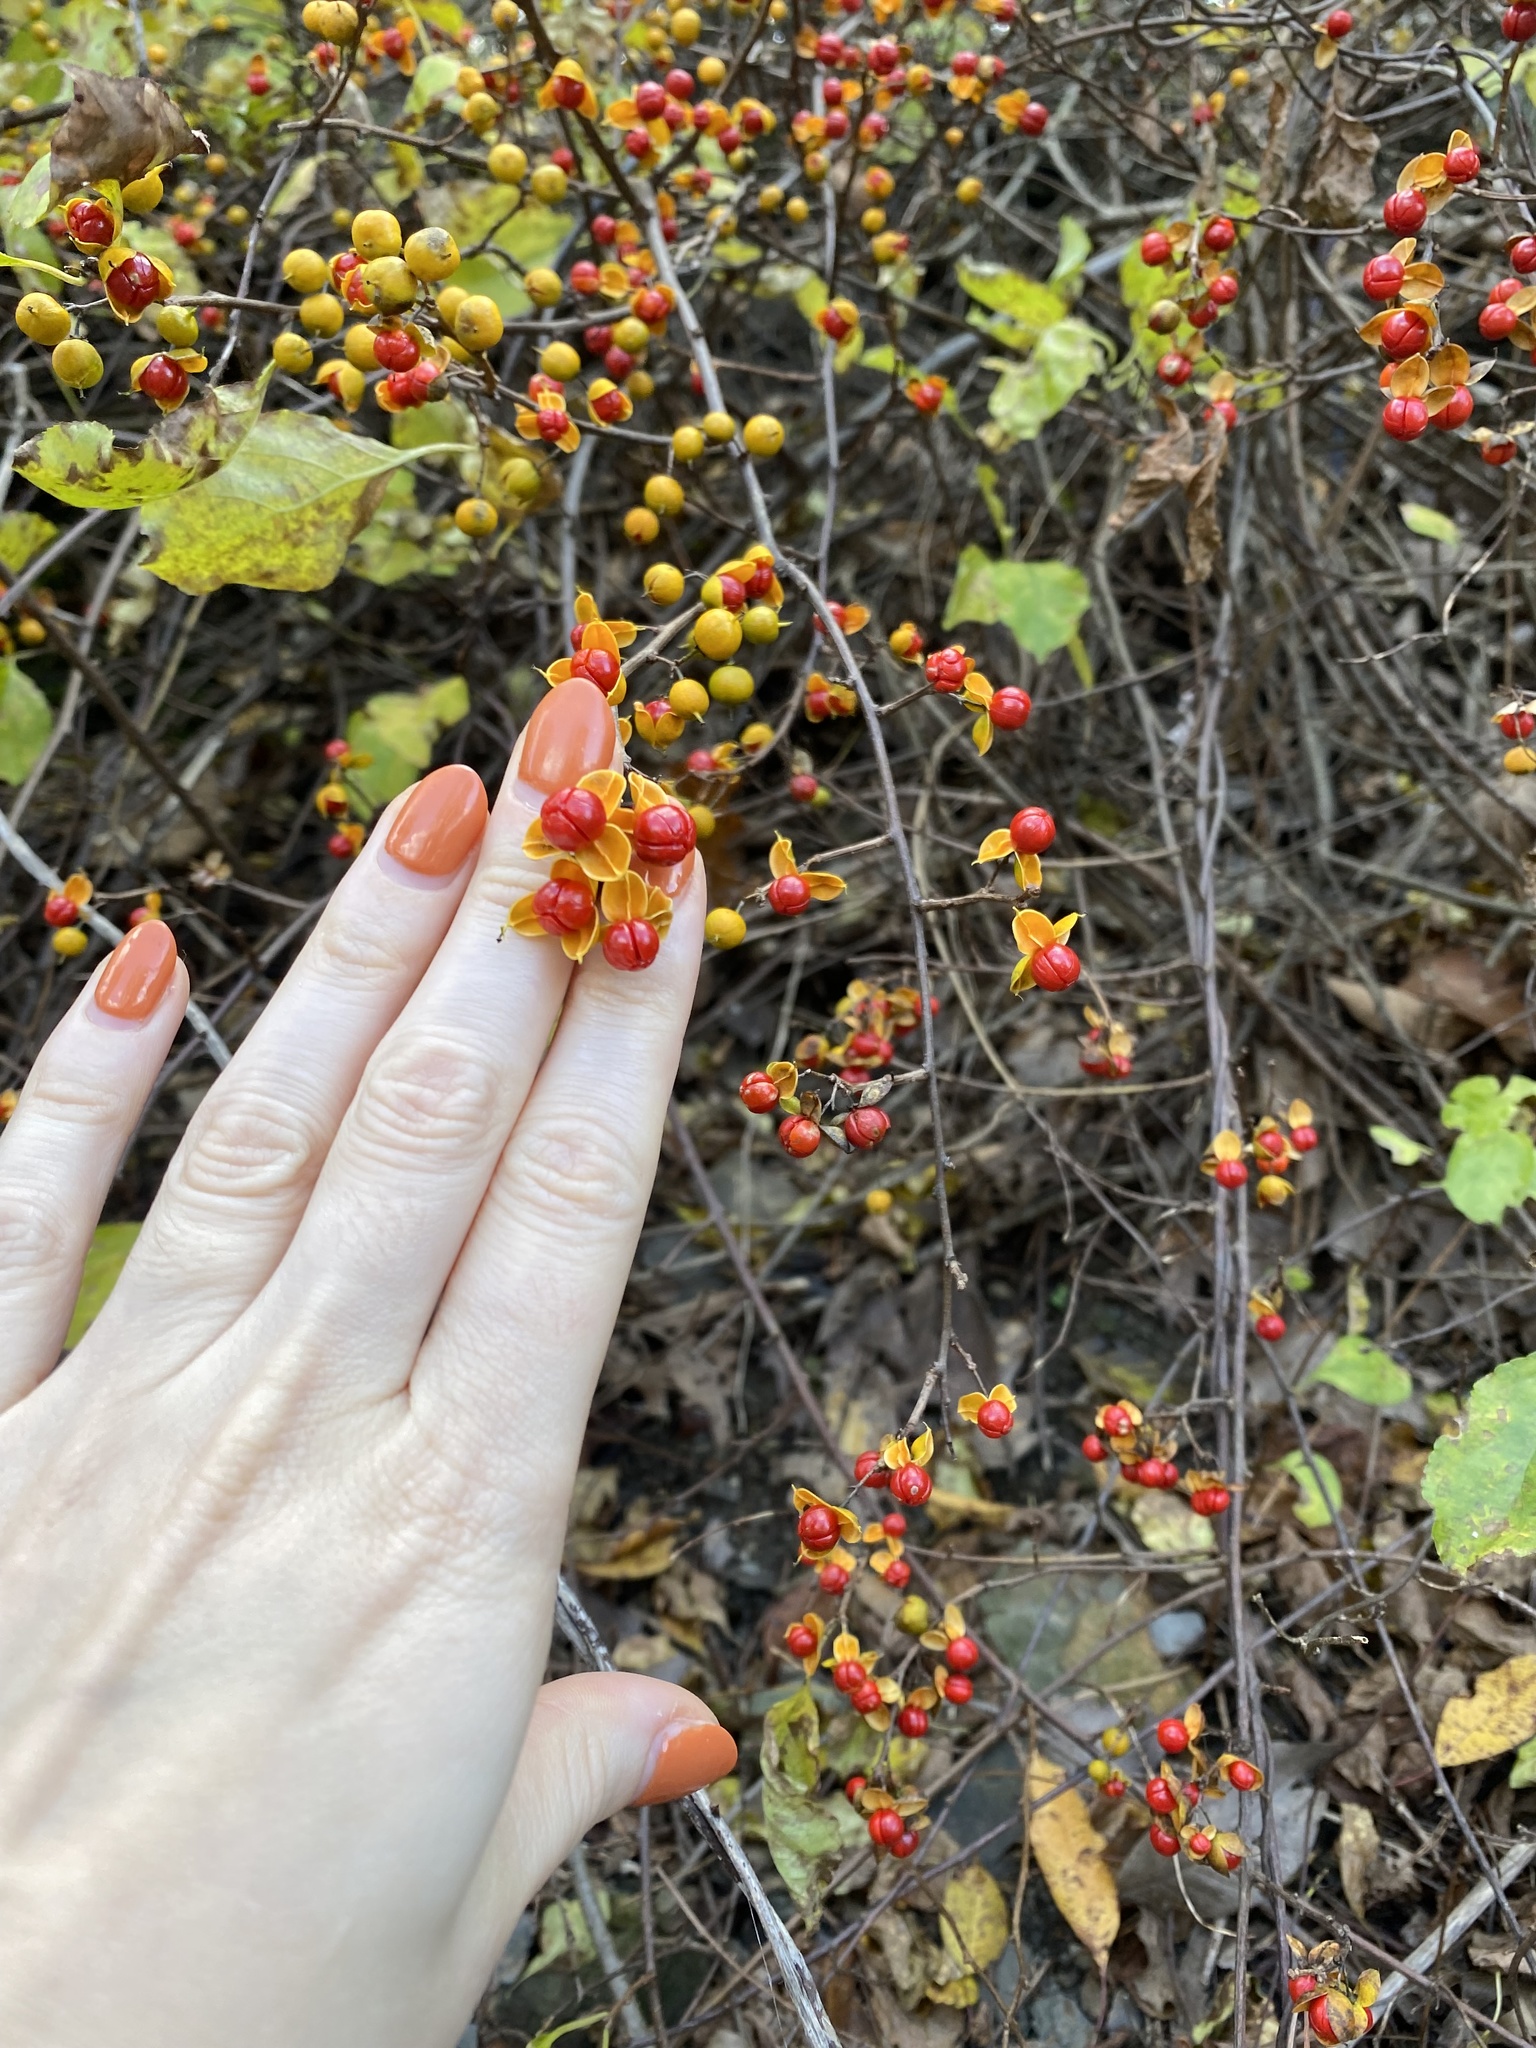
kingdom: Plantae
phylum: Tracheophyta
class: Magnoliopsida
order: Celastrales
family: Celastraceae
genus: Celastrus
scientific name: Celastrus orbiculatus
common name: Oriental bittersweet
